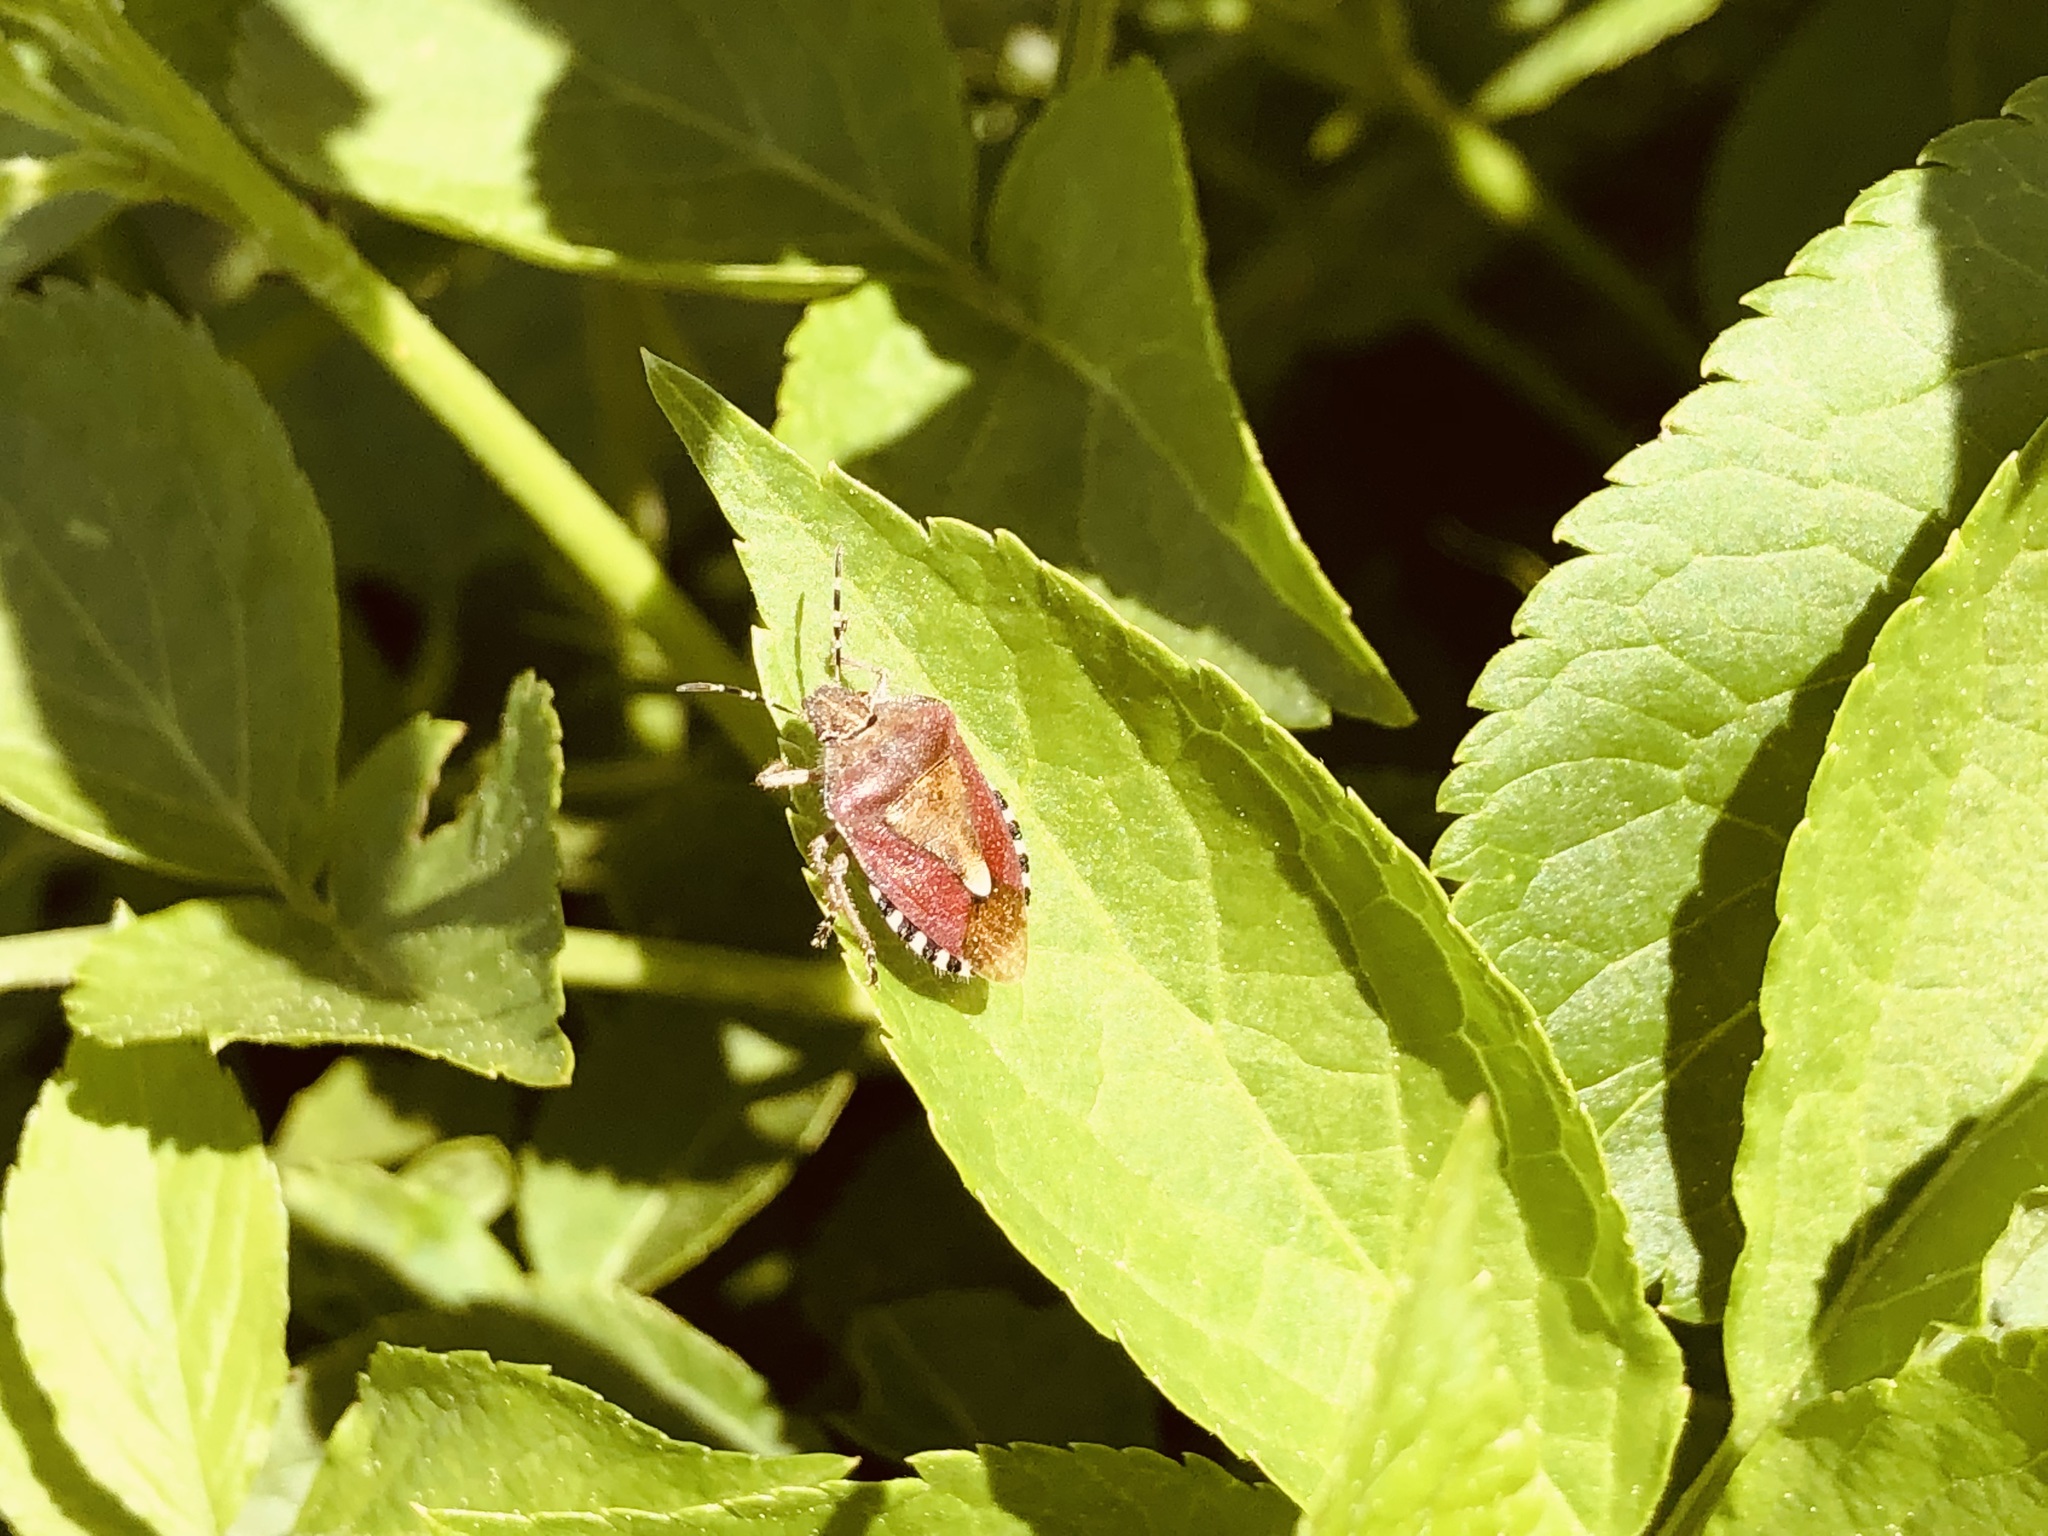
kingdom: Animalia
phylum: Arthropoda
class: Insecta
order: Hemiptera
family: Pentatomidae
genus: Dolycoris
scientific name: Dolycoris baccarum
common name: Sloe bug
